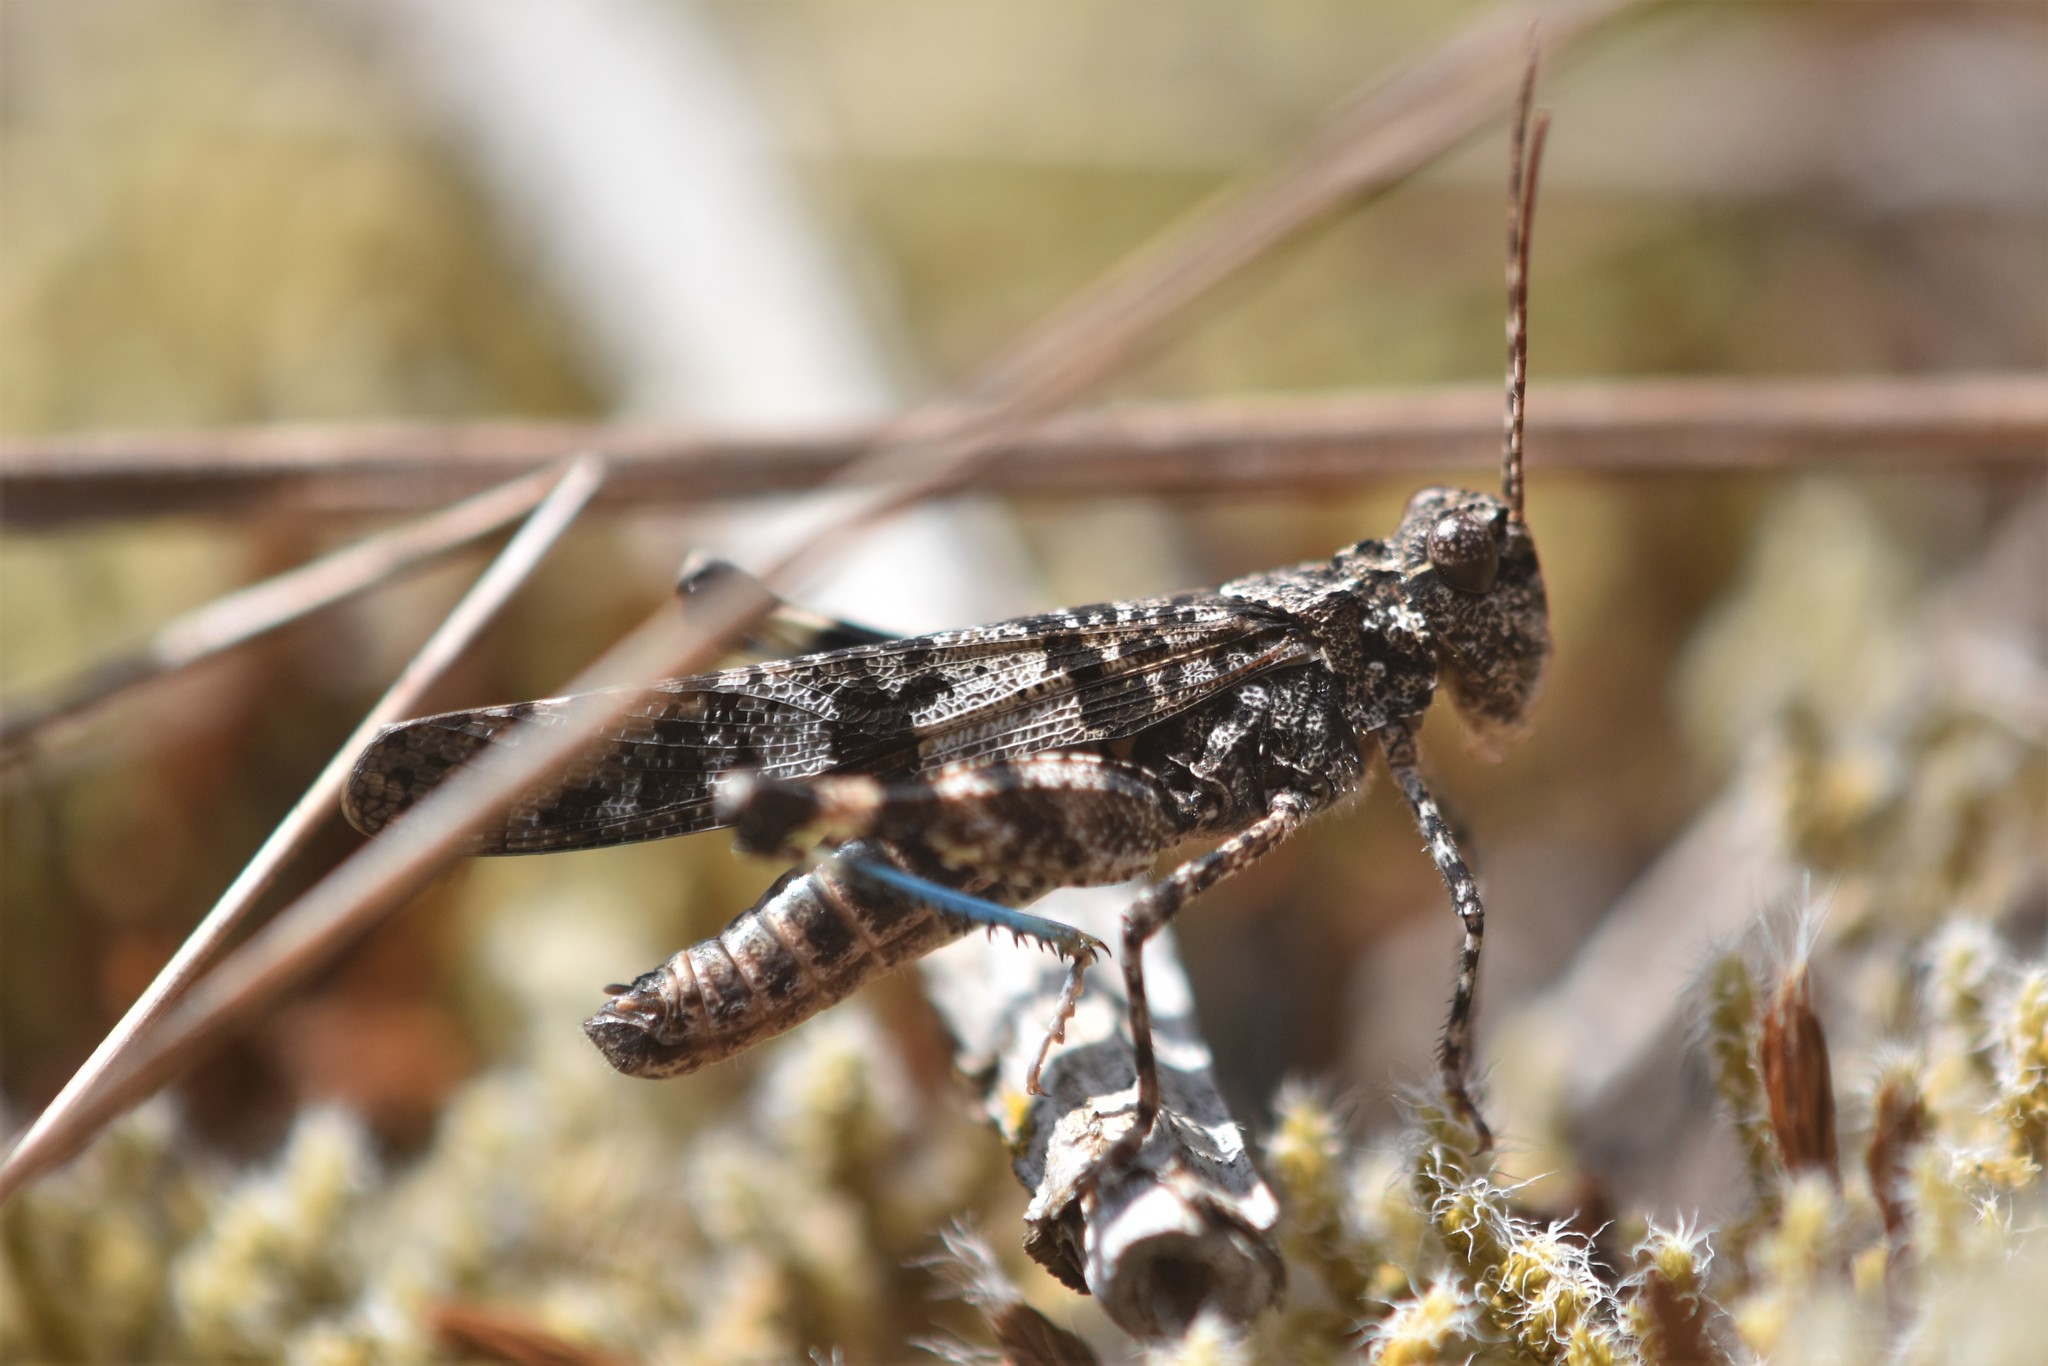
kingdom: Animalia
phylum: Arthropoda
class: Insecta
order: Orthoptera
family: Acrididae
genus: Trimerotropis
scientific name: Trimerotropis fontana
